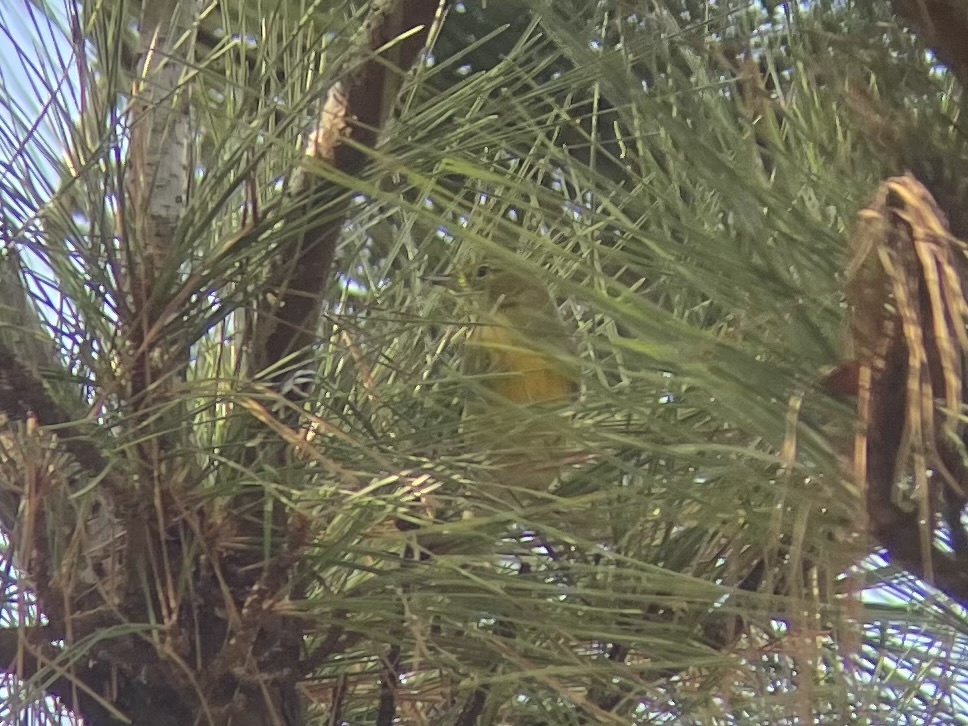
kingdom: Animalia
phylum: Chordata
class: Aves
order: Passeriformes
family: Parulidae
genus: Setophaga
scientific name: Setophaga pinus
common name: Pine warbler
